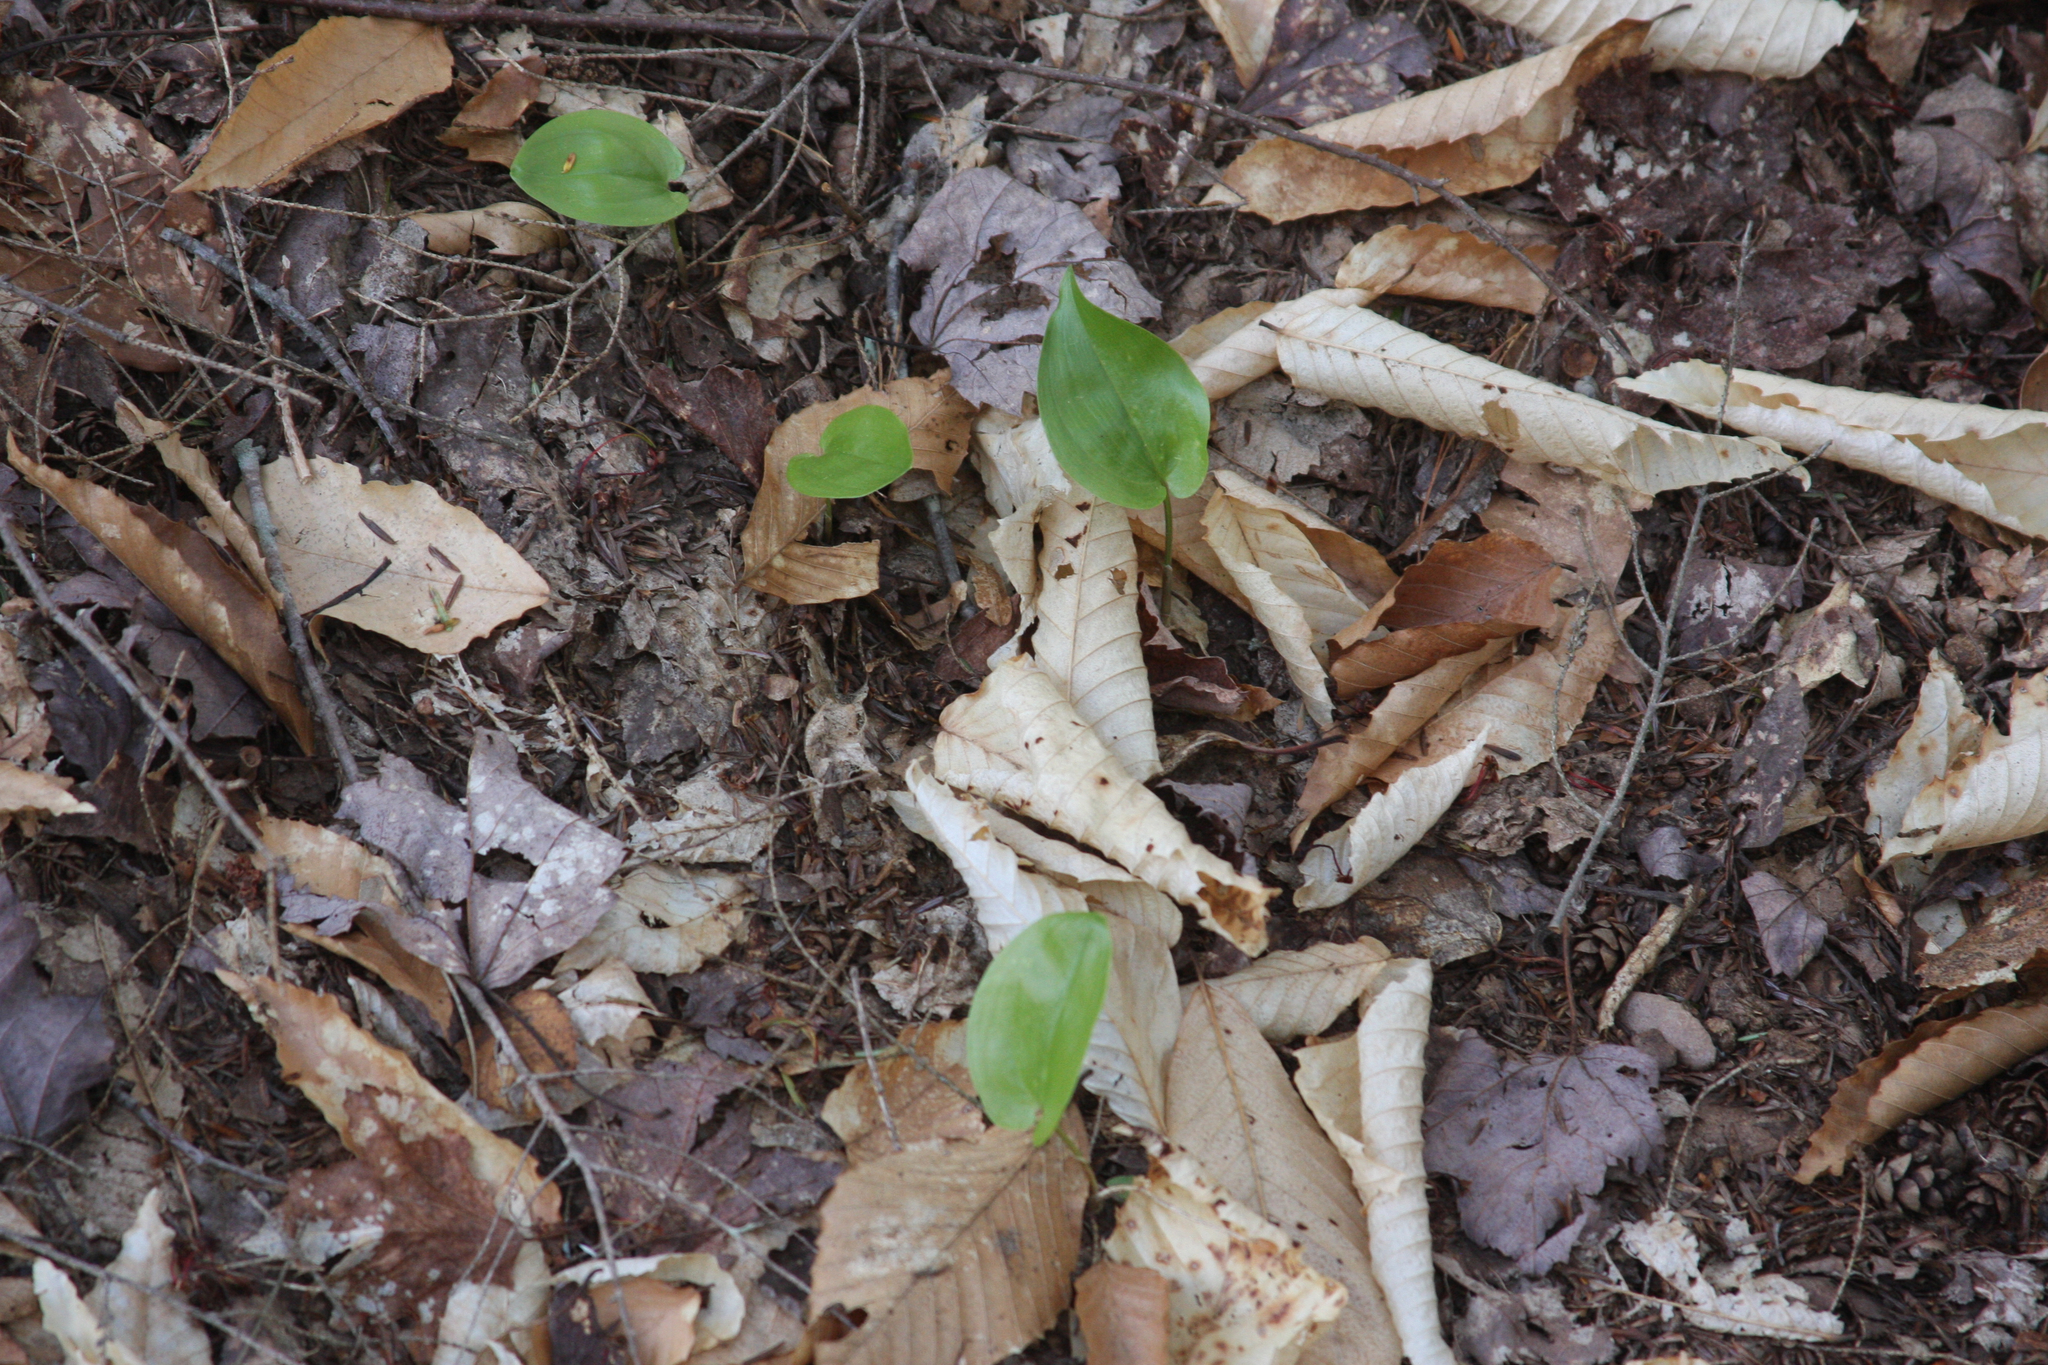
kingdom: Plantae
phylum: Tracheophyta
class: Liliopsida
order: Asparagales
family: Asparagaceae
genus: Maianthemum
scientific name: Maianthemum canadense
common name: False lily-of-the-valley
